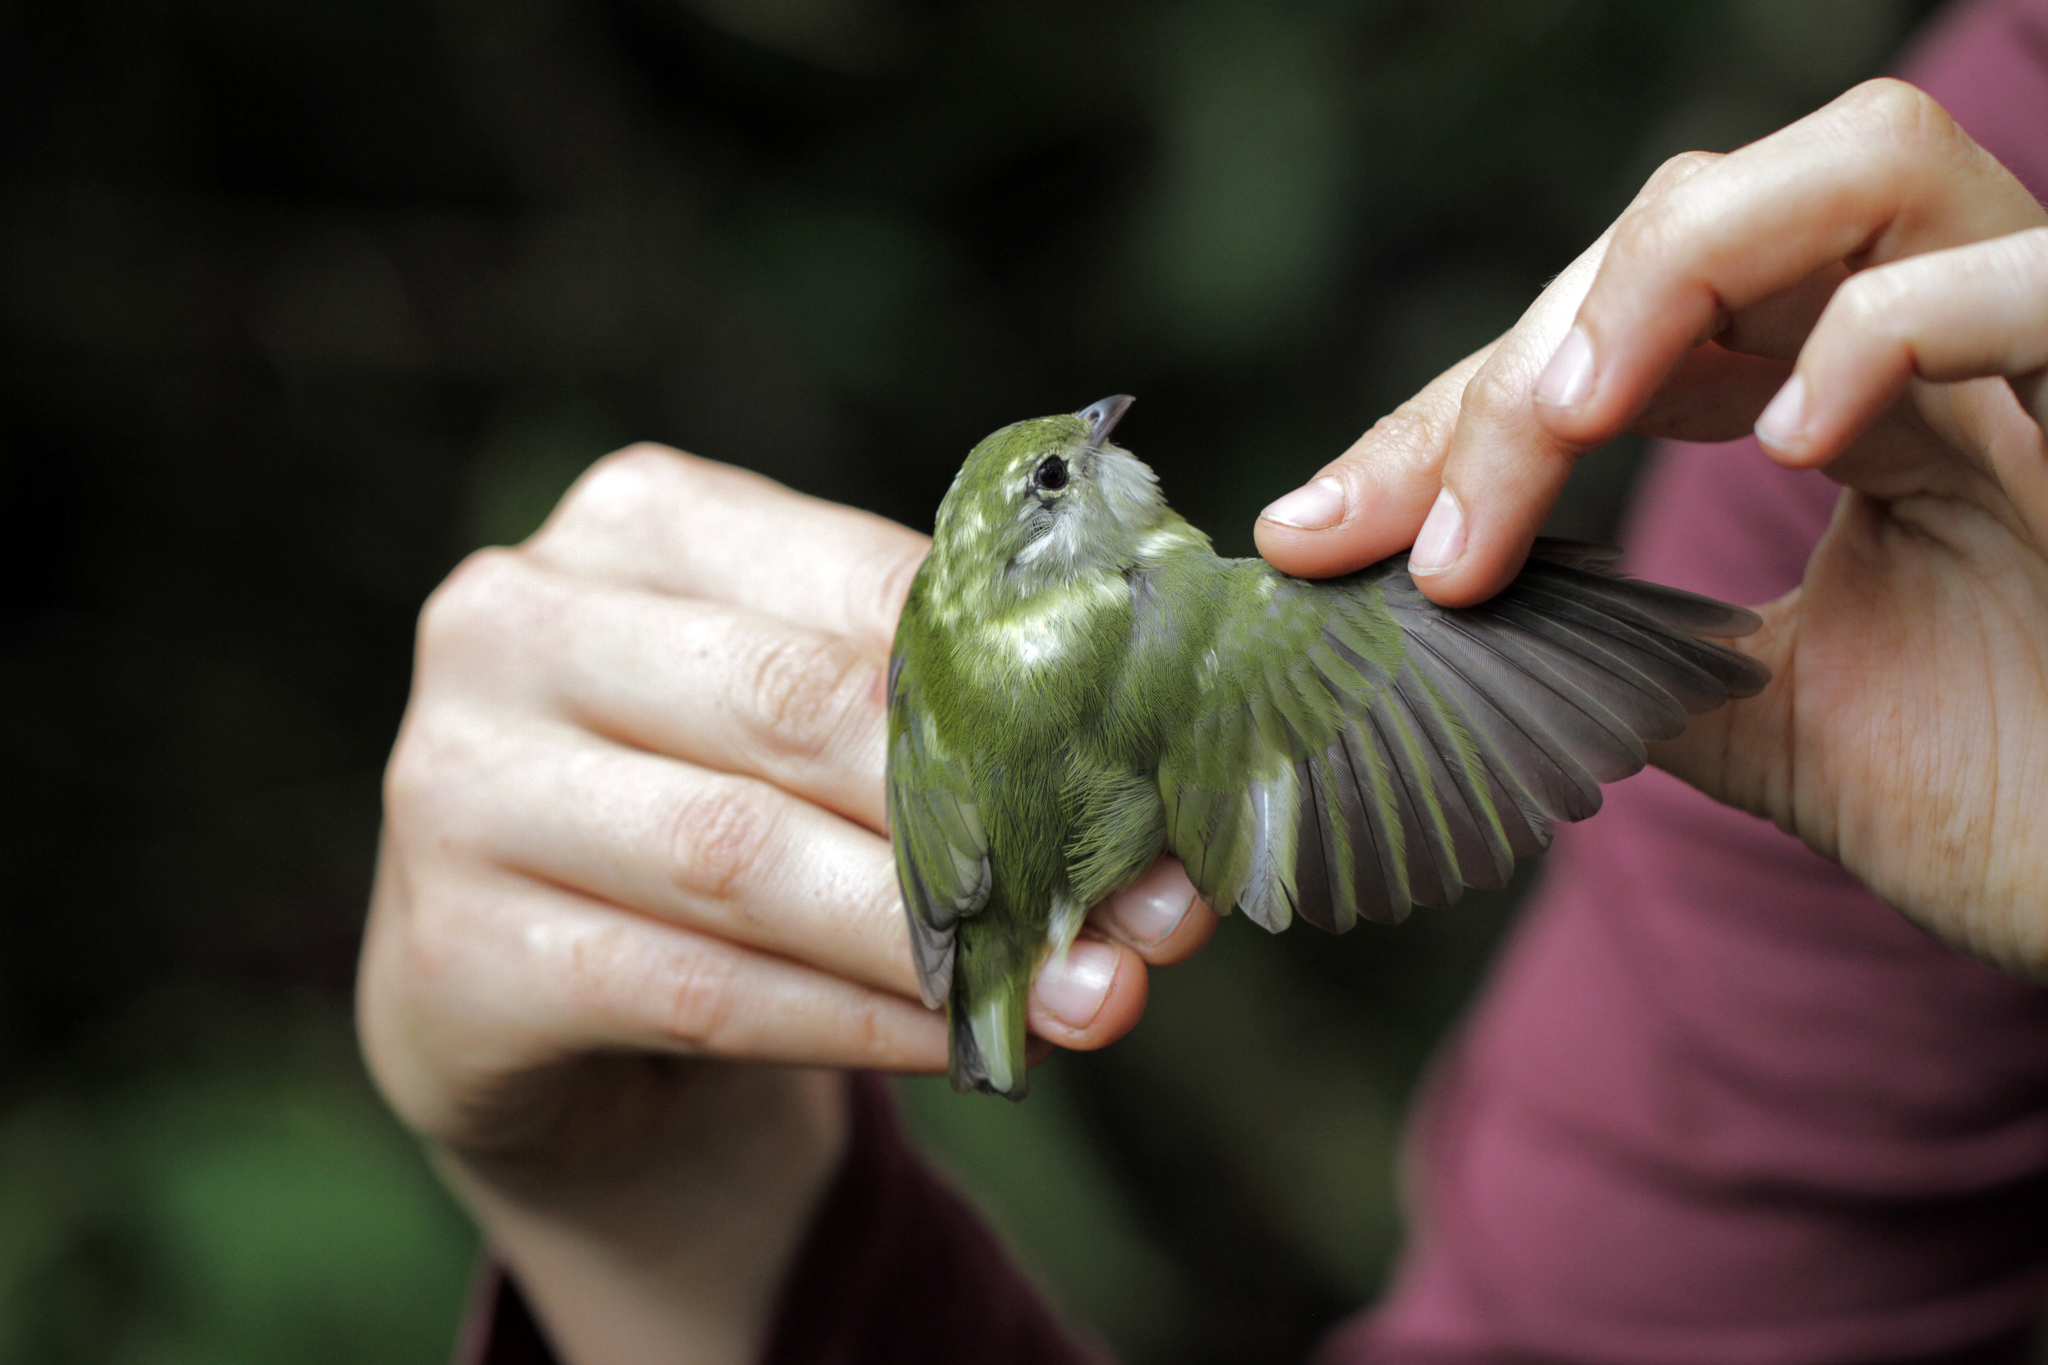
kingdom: Animalia
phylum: Chordata
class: Aves
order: Passeriformes
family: Pipridae
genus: Corapipo
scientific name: Corapipo altera
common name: White-ruffed manakin
